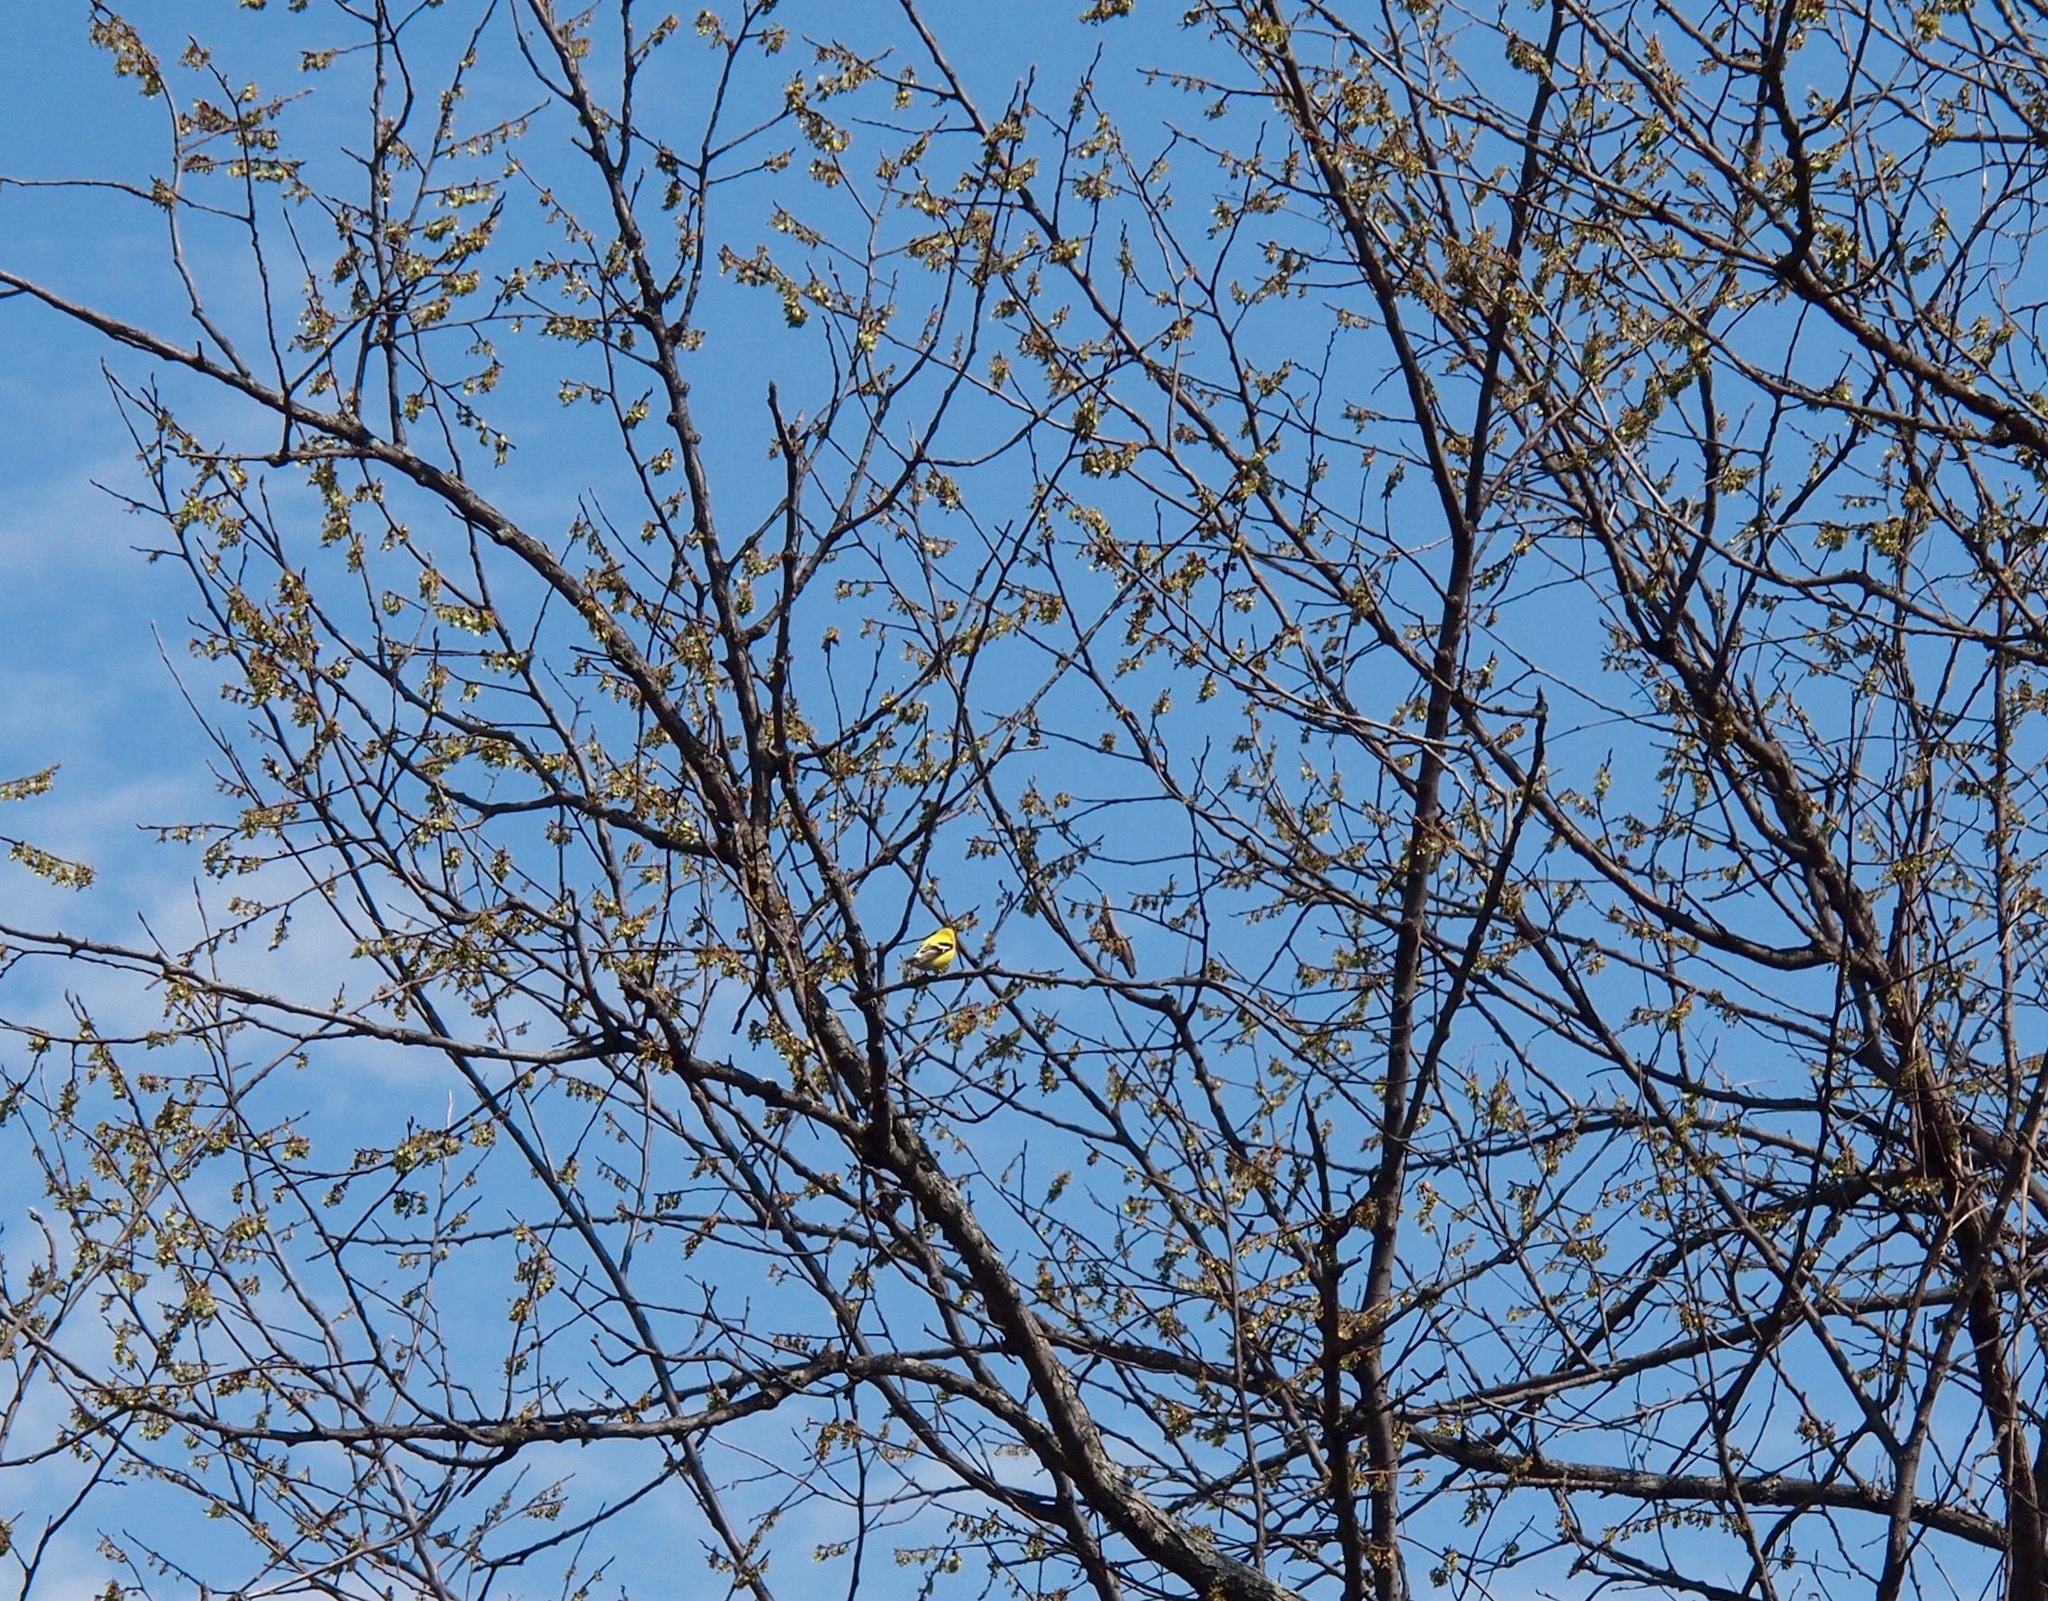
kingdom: Animalia
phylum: Chordata
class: Aves
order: Passeriformes
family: Fringillidae
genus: Spinus
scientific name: Spinus tristis
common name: American goldfinch
